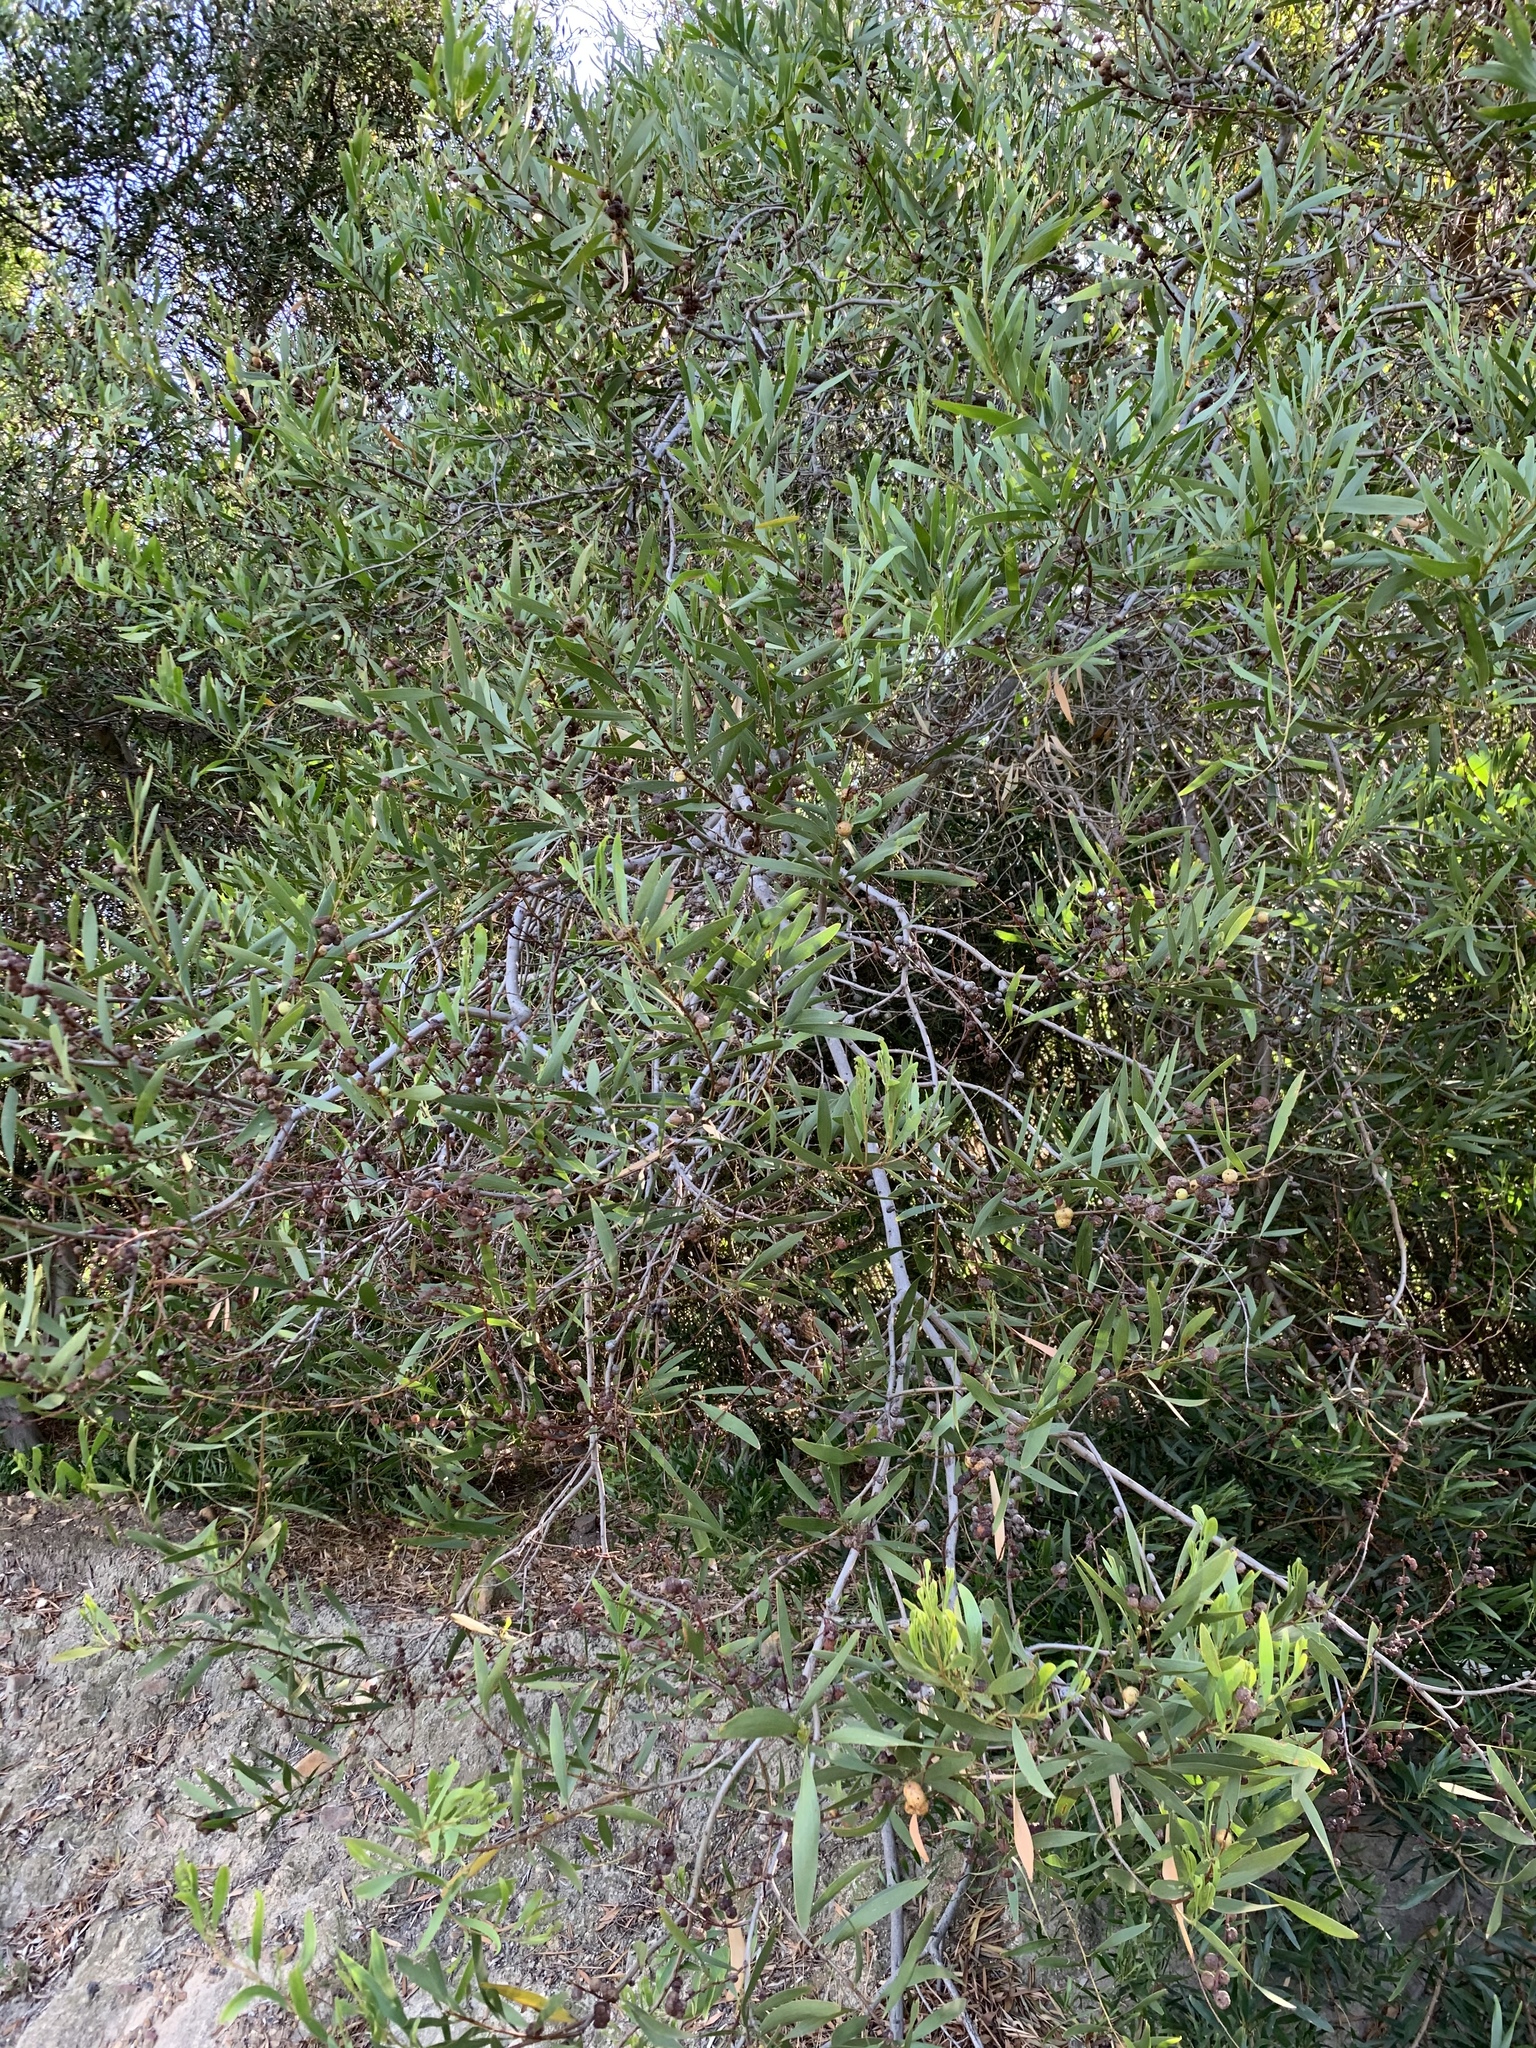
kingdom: Plantae
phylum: Tracheophyta
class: Magnoliopsida
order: Fabales
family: Fabaceae
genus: Acacia
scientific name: Acacia longifolia
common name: Sydney golden wattle
